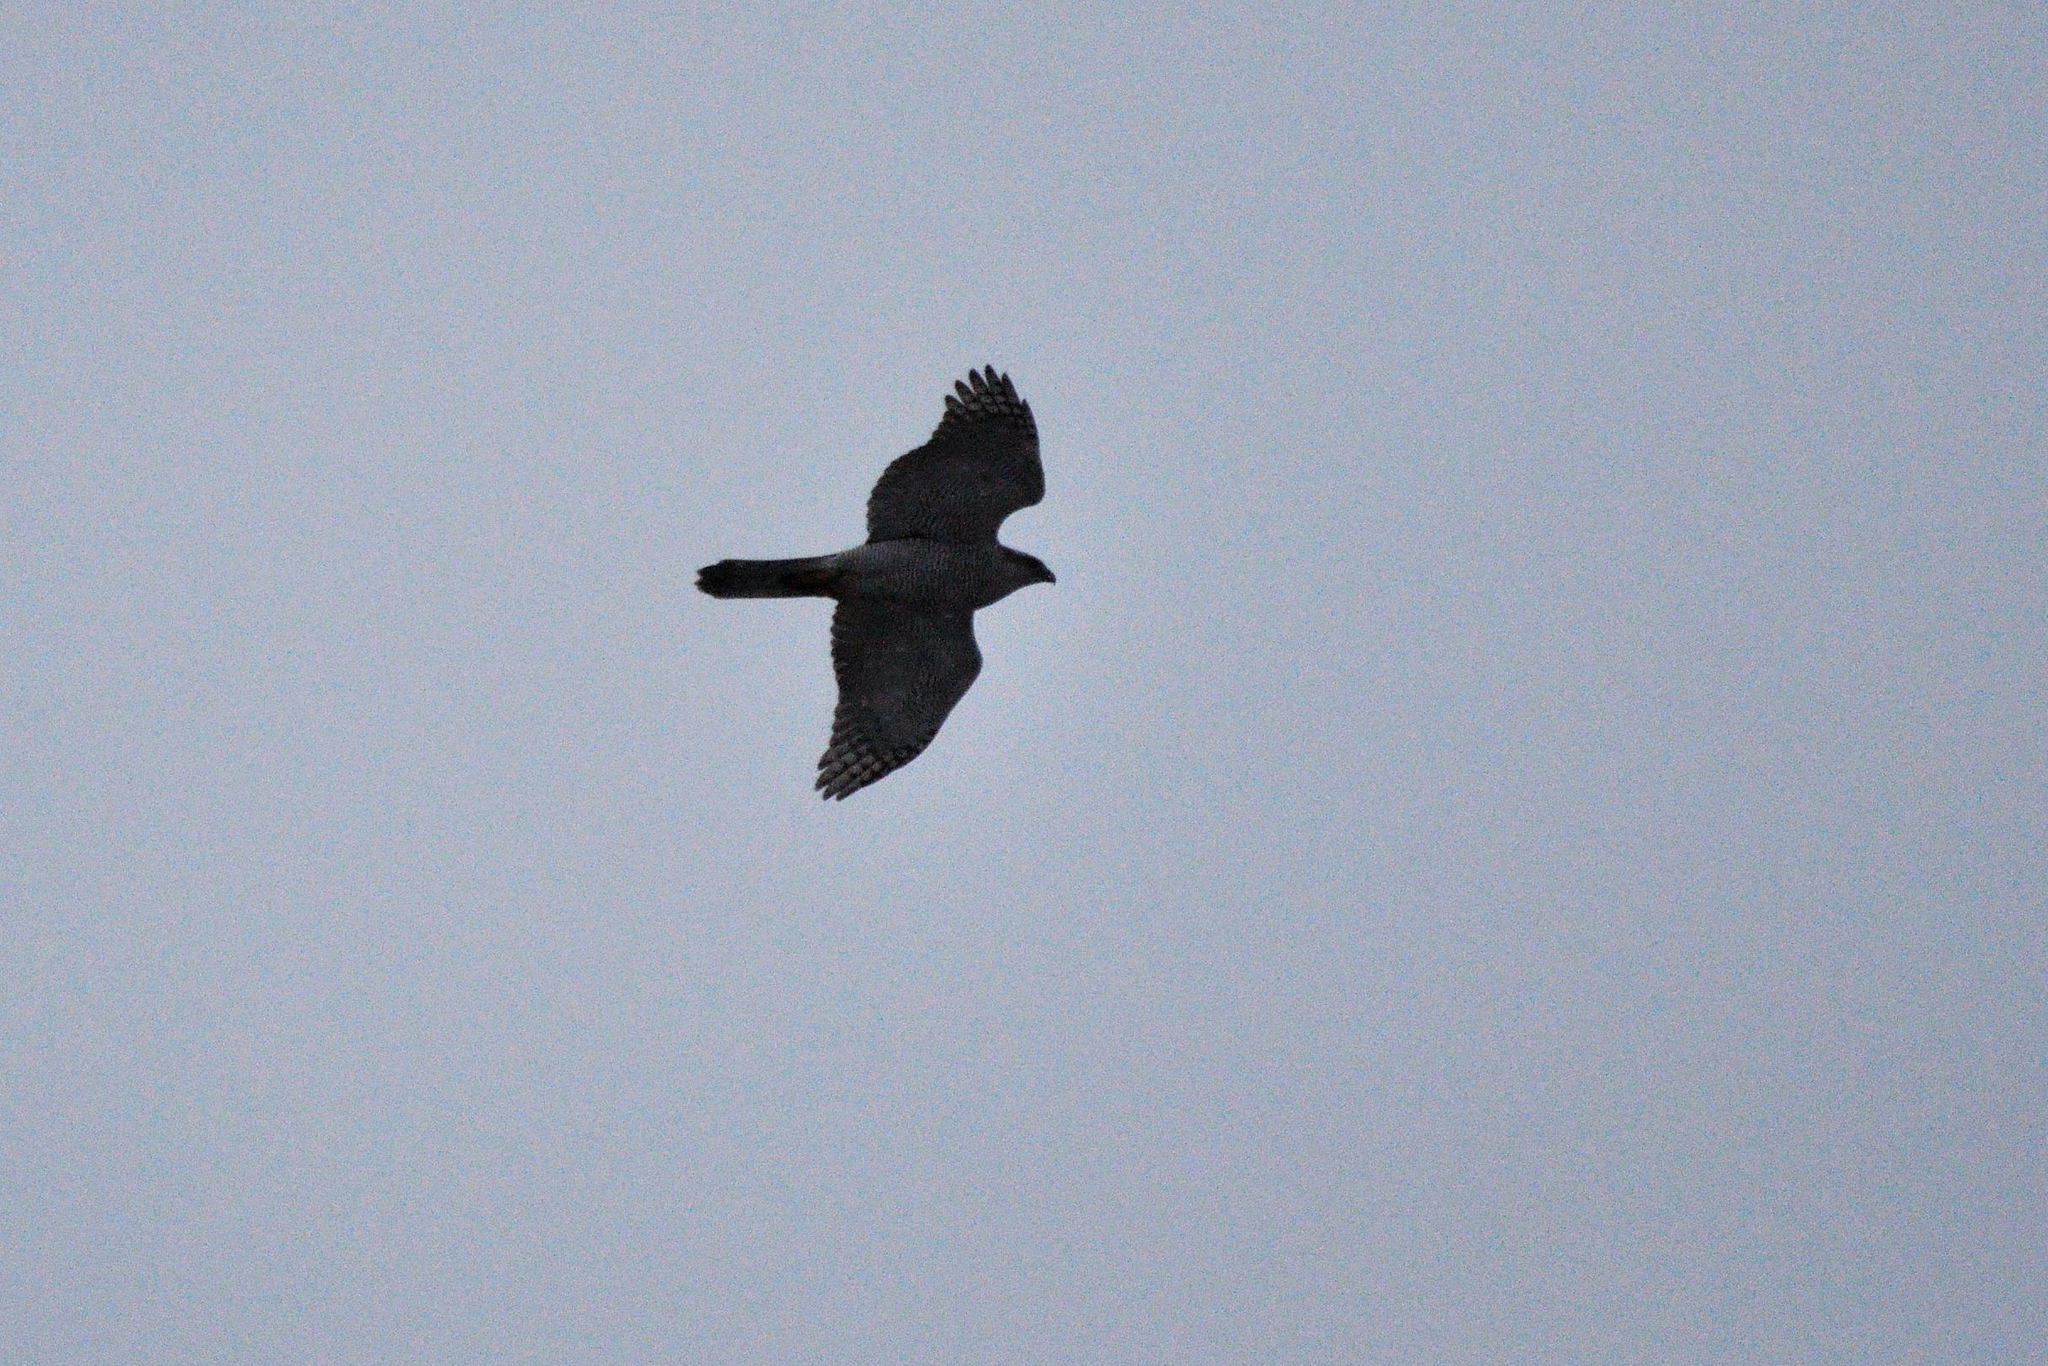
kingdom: Animalia
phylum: Chordata
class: Aves
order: Accipitriformes
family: Accipitridae
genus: Accipiter
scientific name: Accipiter gentilis
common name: Northern goshawk
